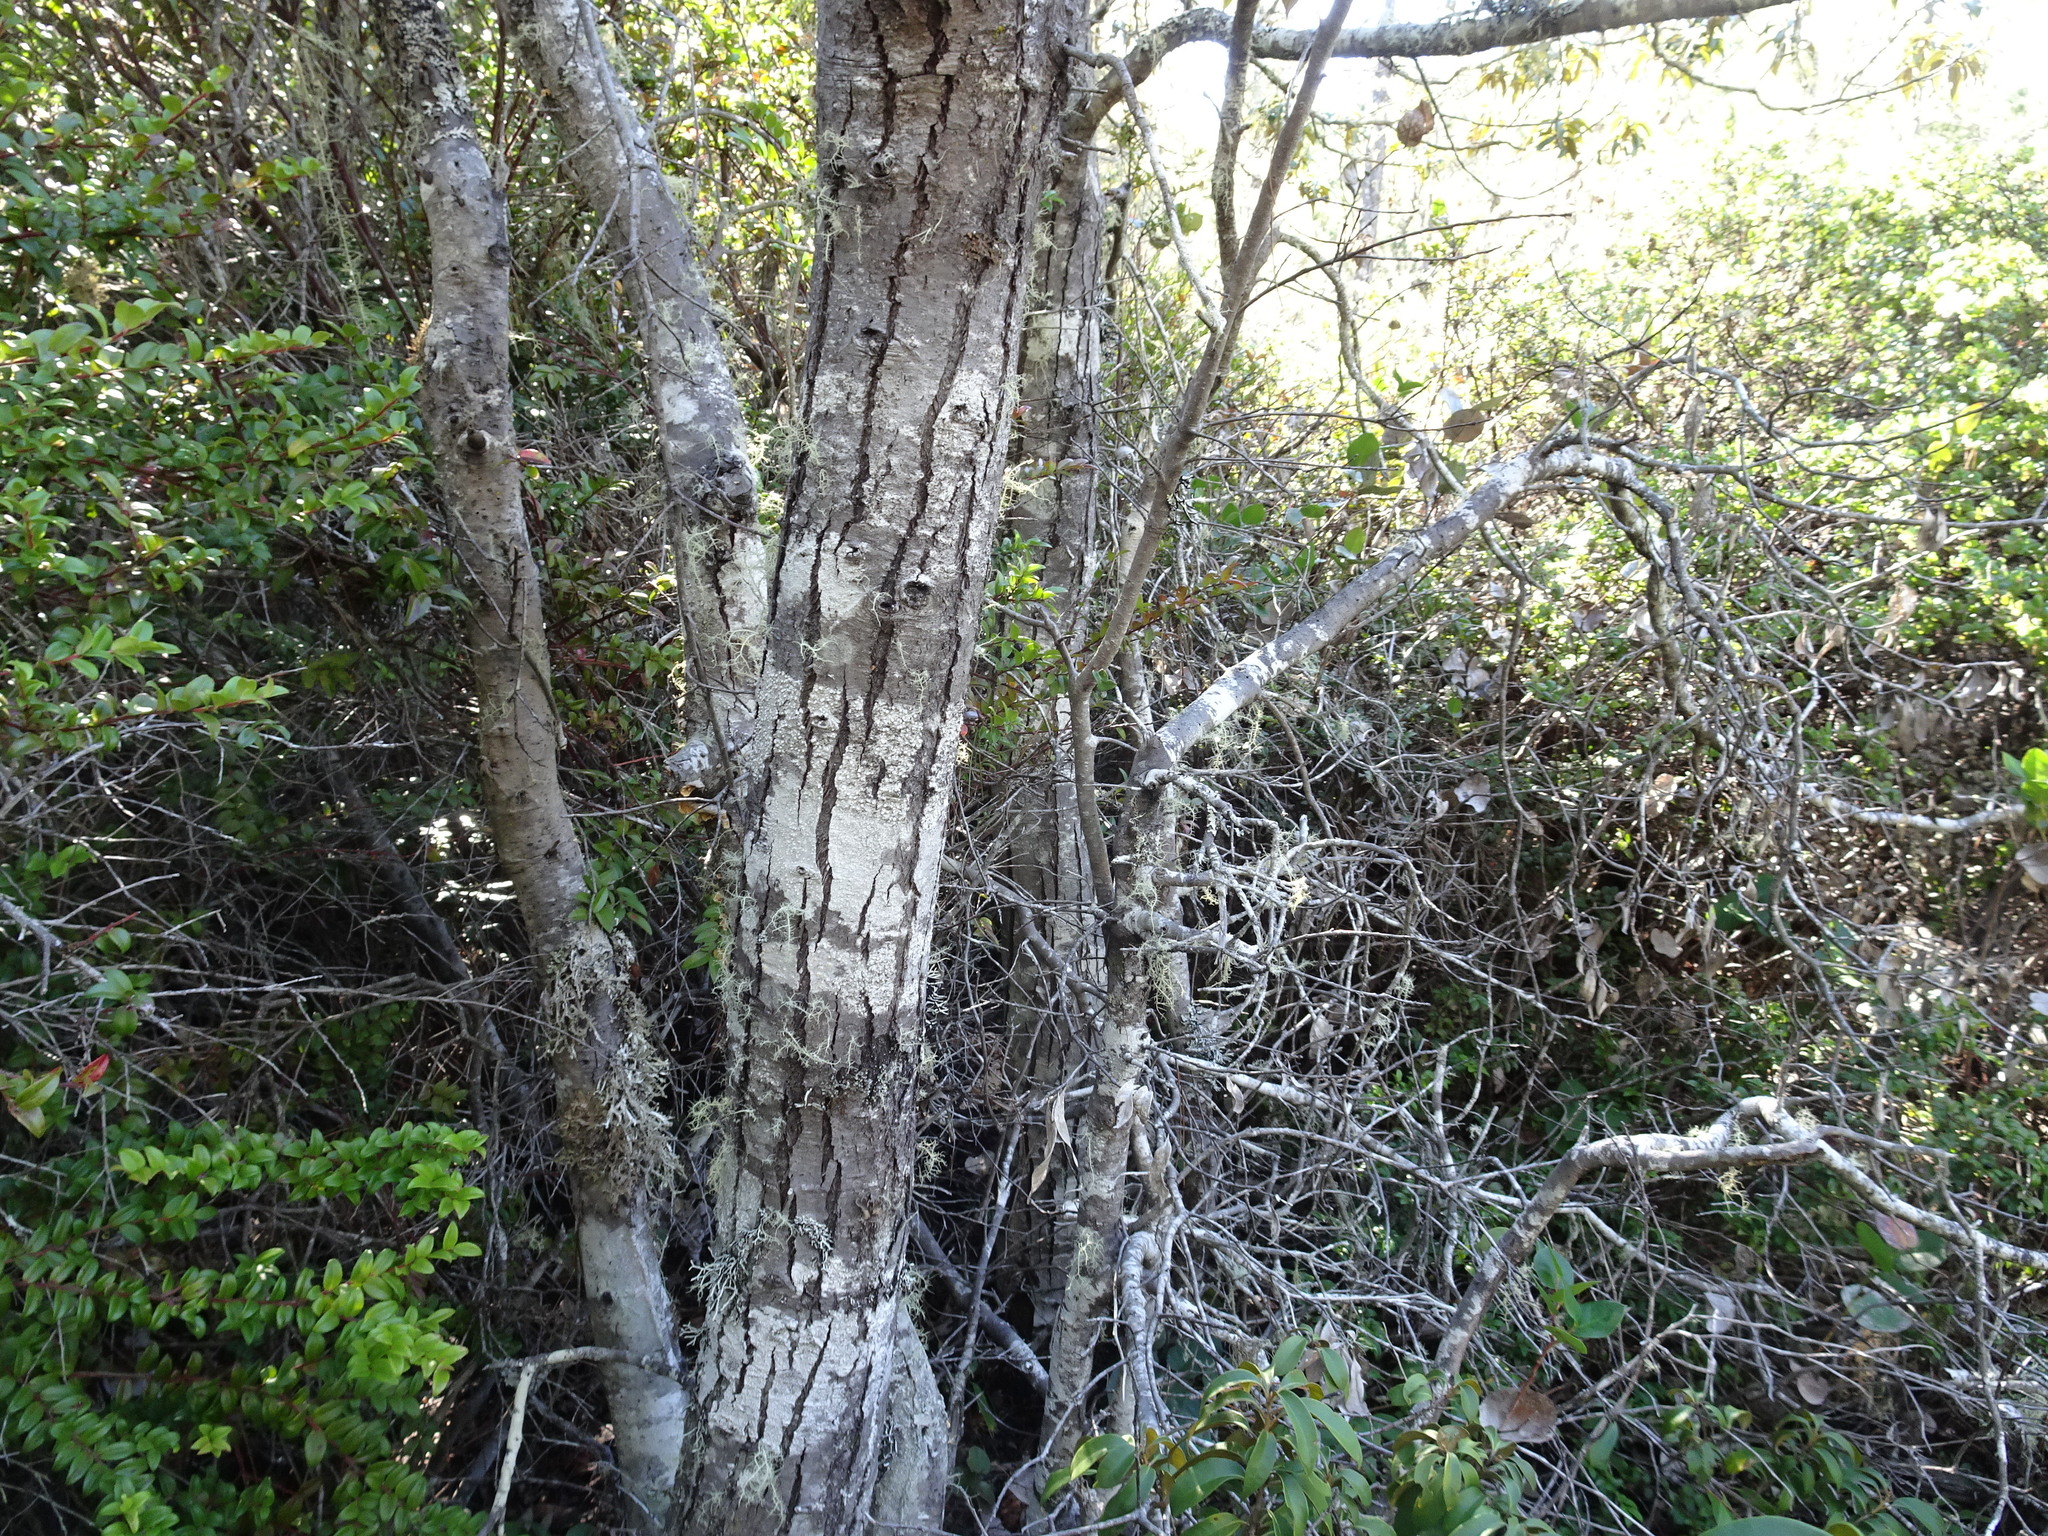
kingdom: Plantae
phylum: Tracheophyta
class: Magnoliopsida
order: Fagales
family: Fagaceae
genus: Chrysolepis
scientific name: Chrysolepis chrysophylla
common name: Giant chinquapin
